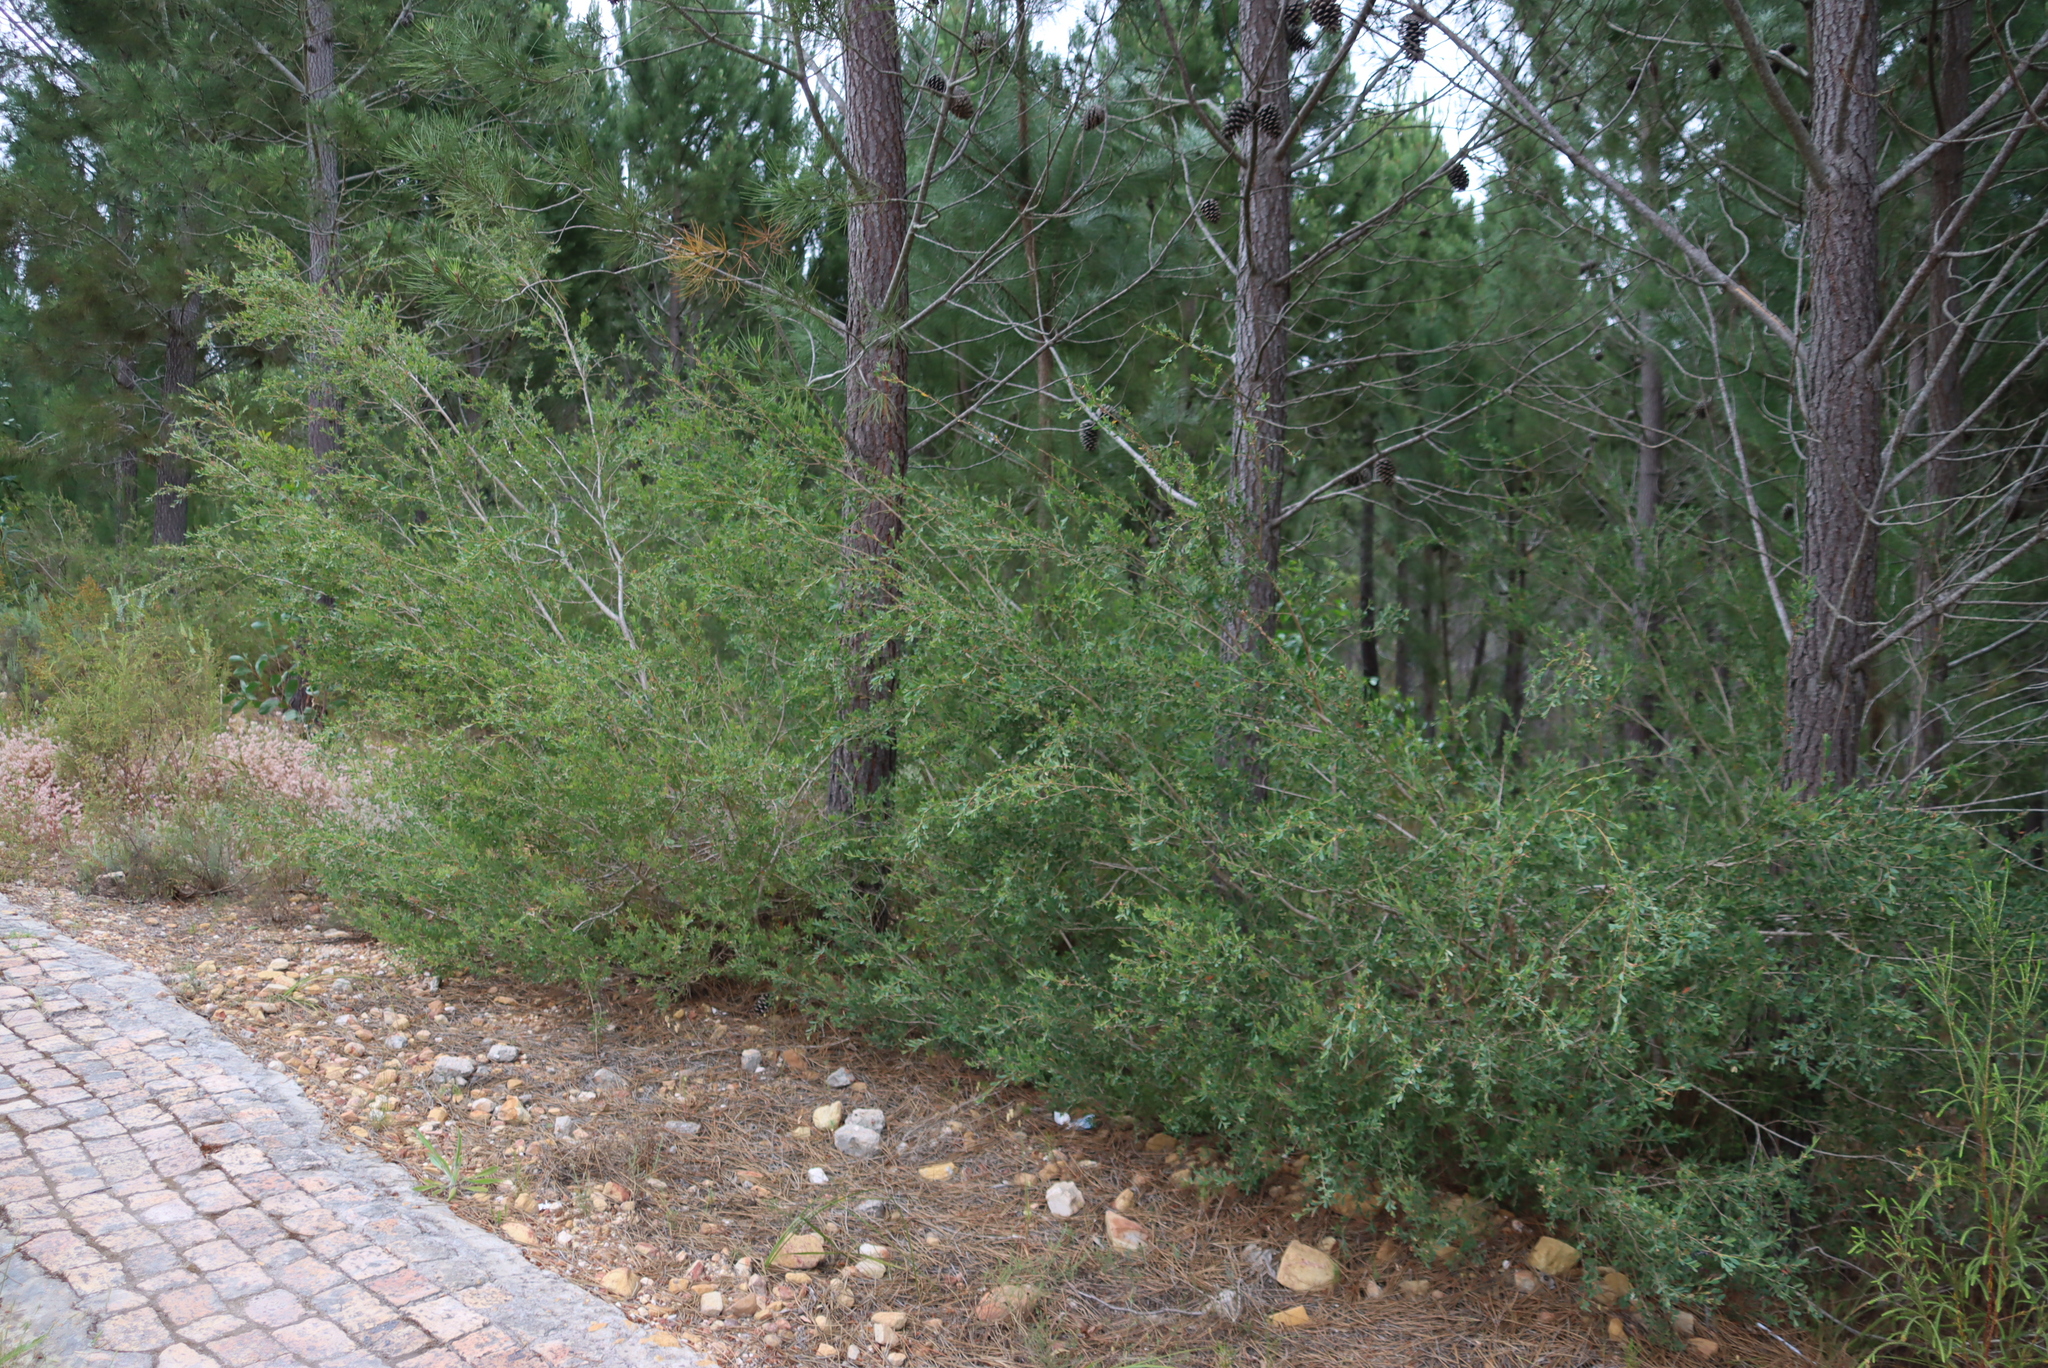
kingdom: Plantae
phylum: Tracheophyta
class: Magnoliopsida
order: Myrtales
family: Myrtaceae
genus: Leptospermum
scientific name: Leptospermum laevigatum
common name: Australian teatree
